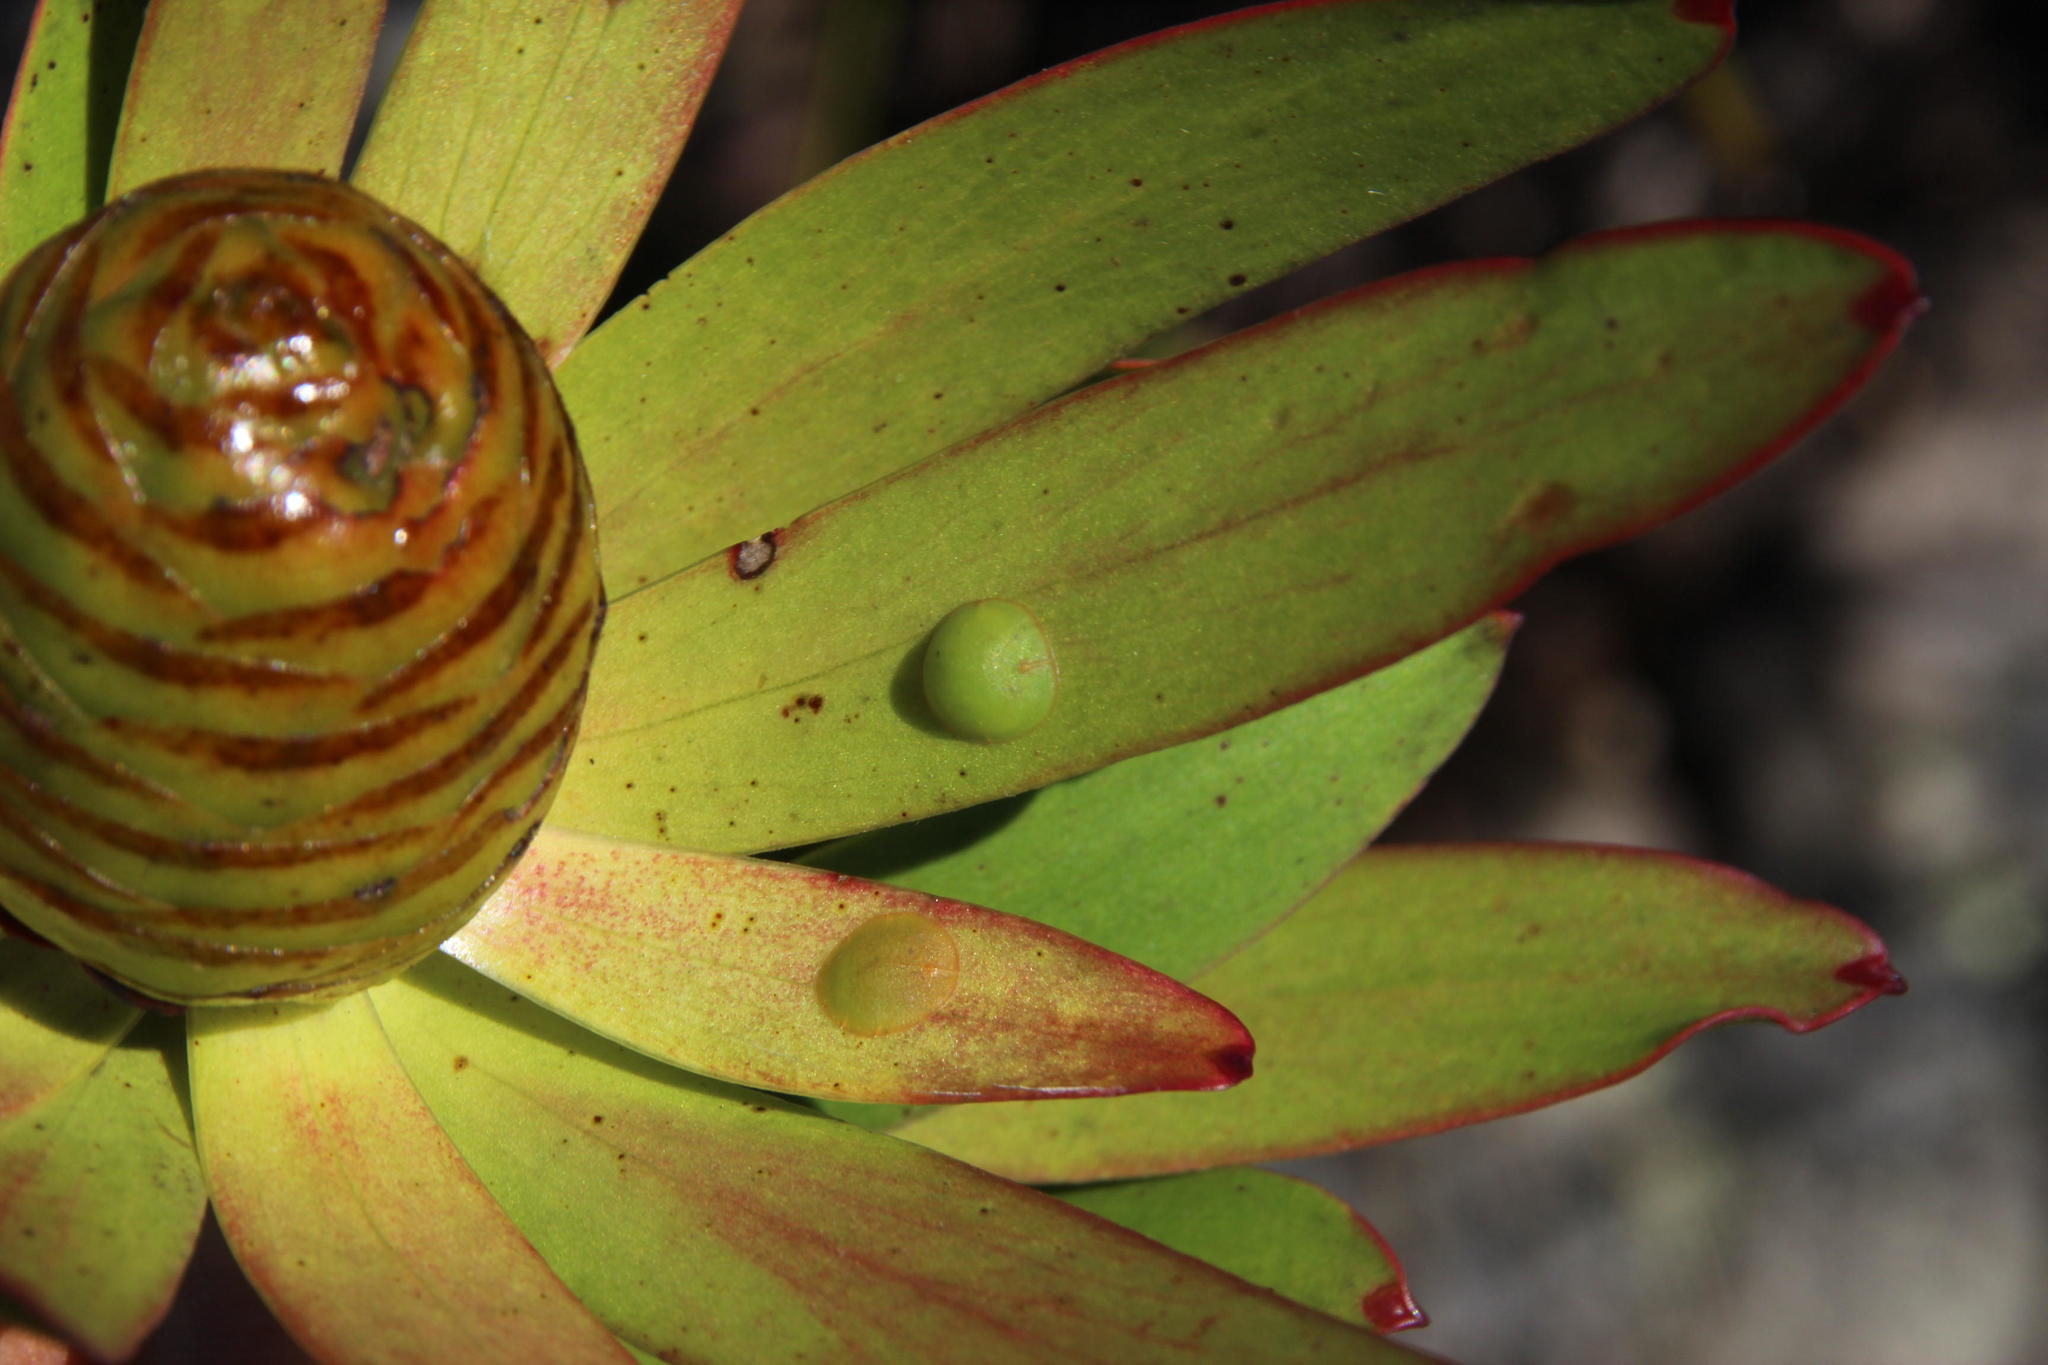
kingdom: Plantae
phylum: Tracheophyta
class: Magnoliopsida
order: Proteales
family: Proteaceae
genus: Leucadendron
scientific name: Leucadendron microcephalum
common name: Oilbract conebush
